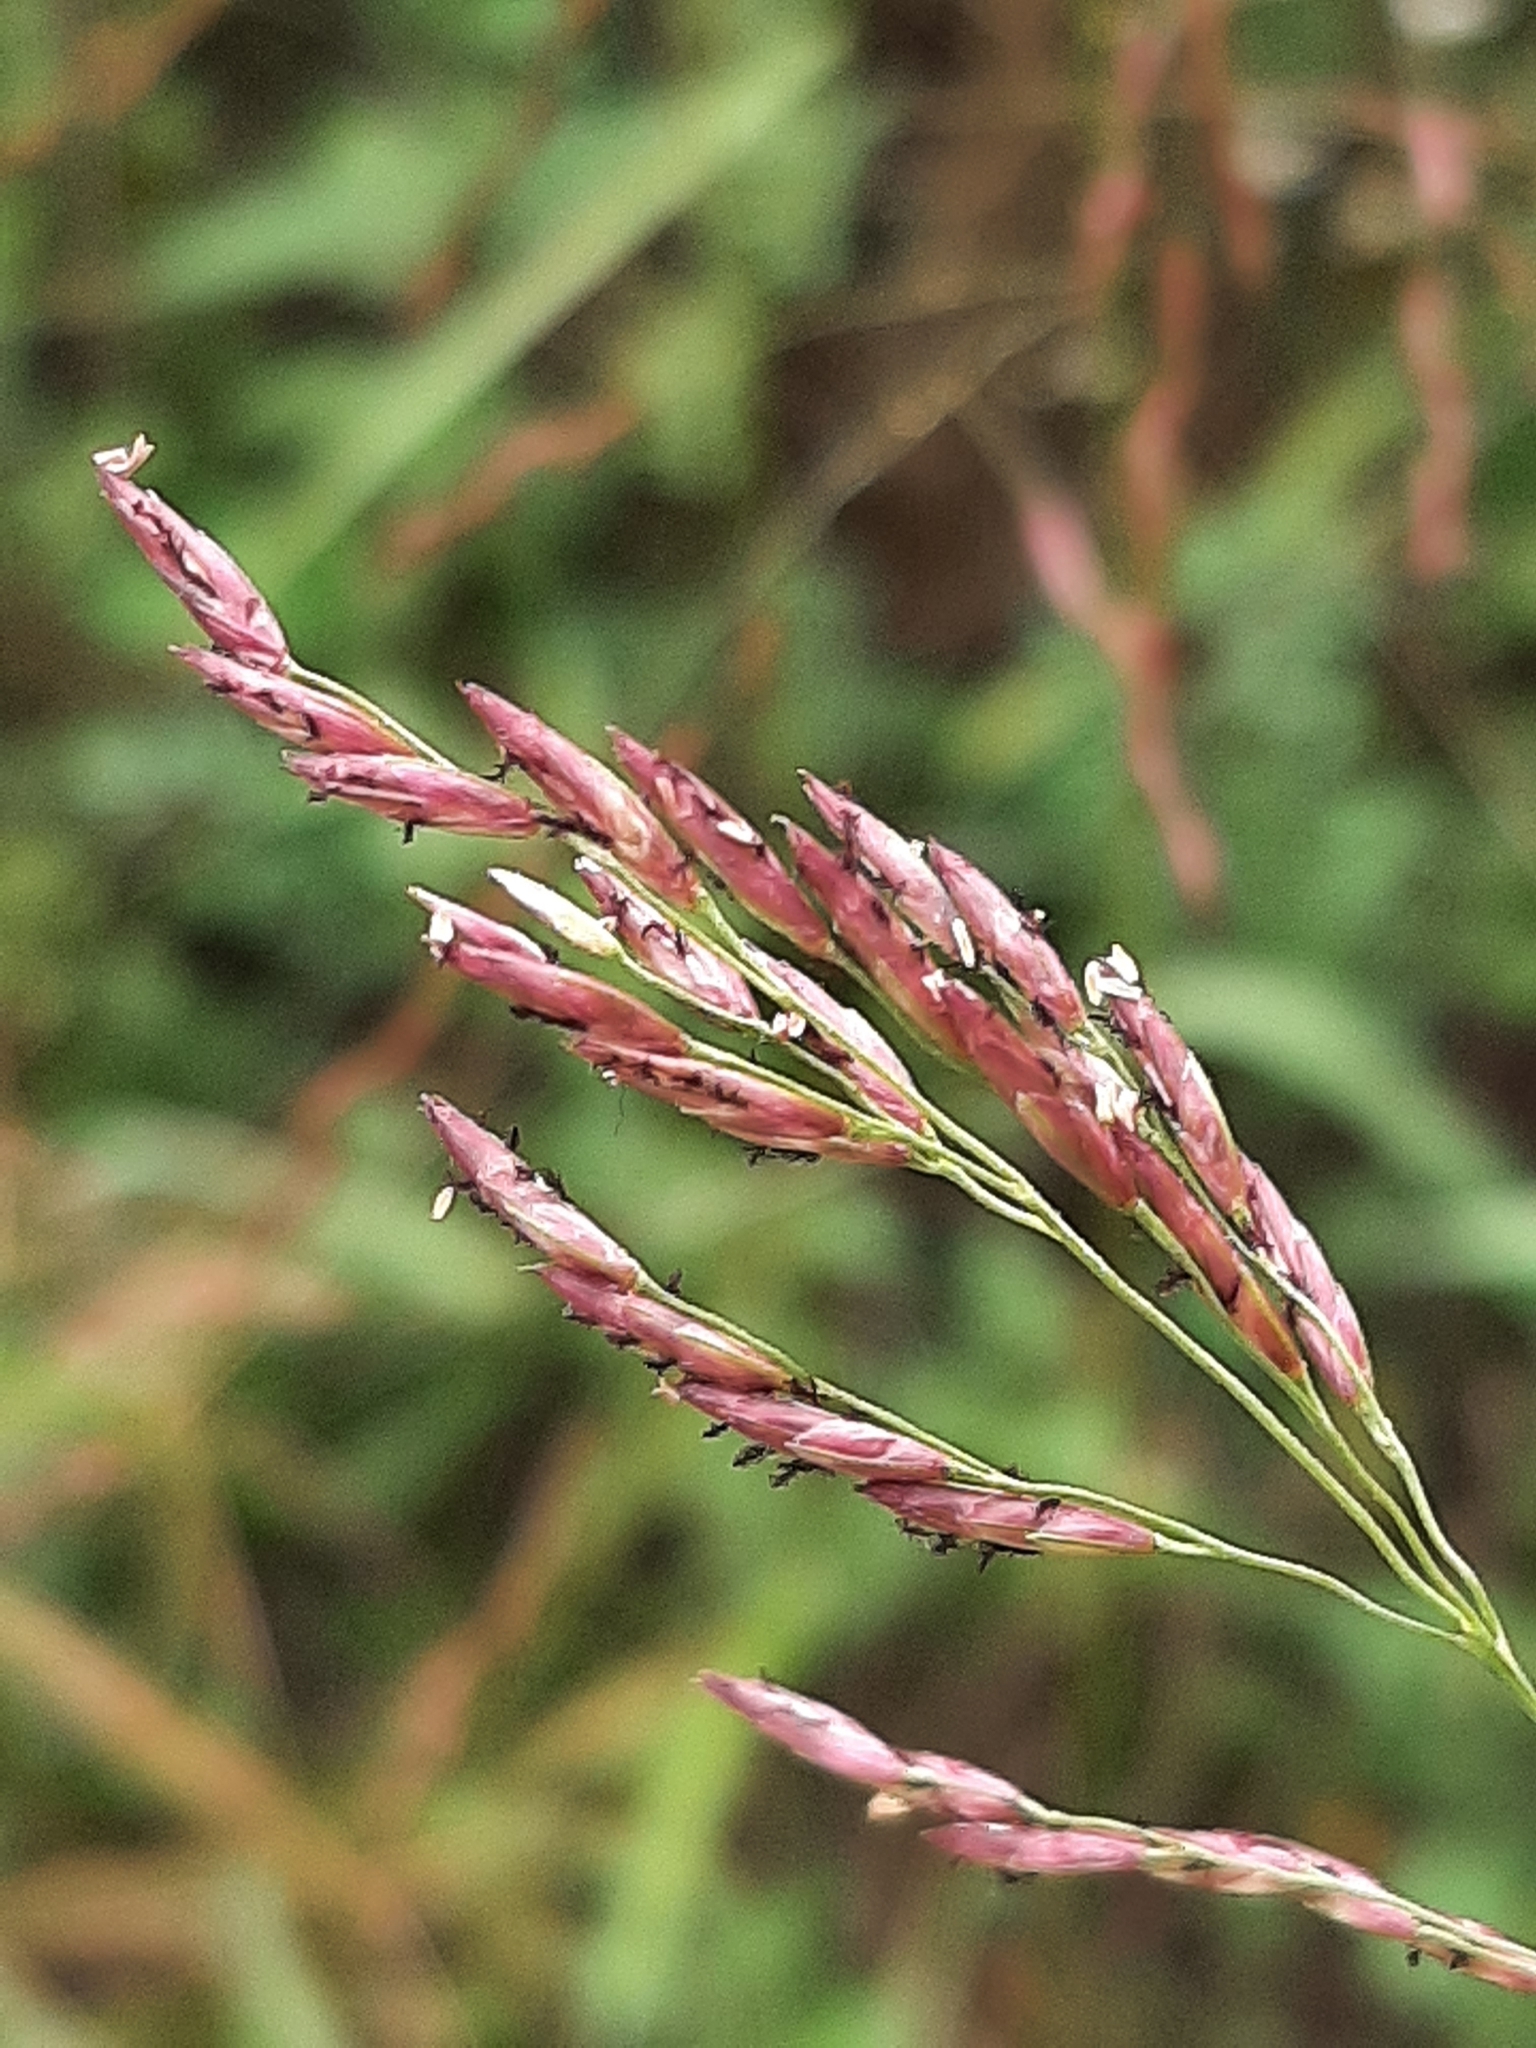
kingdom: Plantae
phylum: Tracheophyta
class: Liliopsida
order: Poales
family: Poaceae
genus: Tridens
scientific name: Tridens flavus
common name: Purpletop
